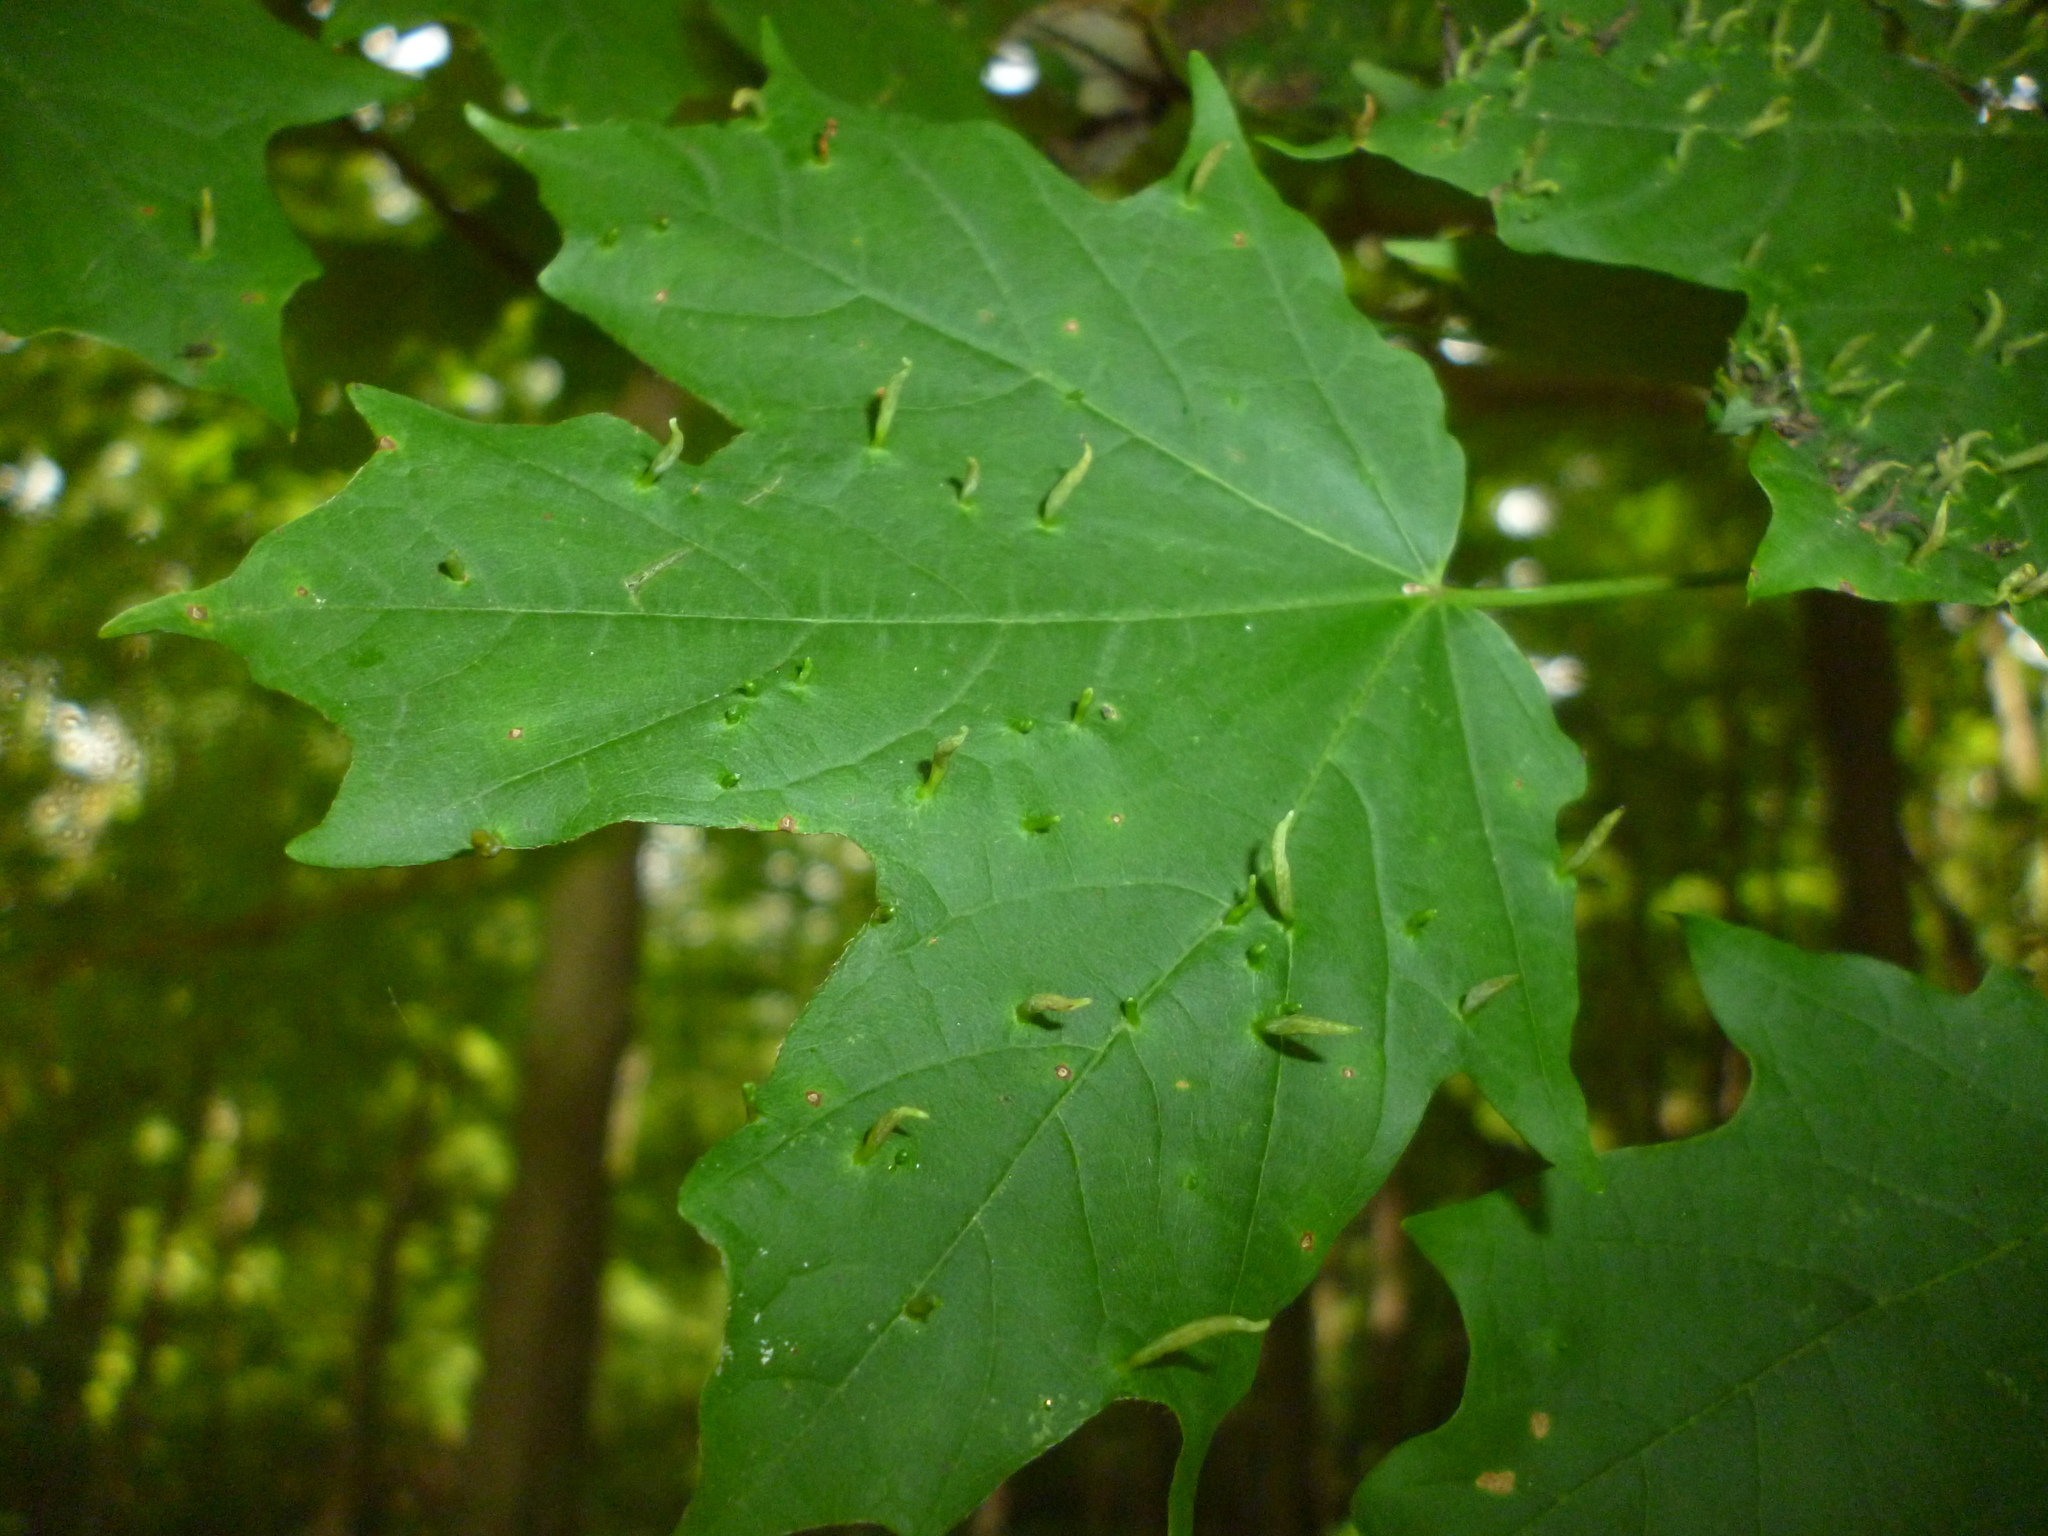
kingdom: Animalia
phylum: Arthropoda
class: Arachnida
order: Trombidiformes
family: Eriophyidae
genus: Vasates
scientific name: Vasates aceriscrumena
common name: Maple spindle gall mite
